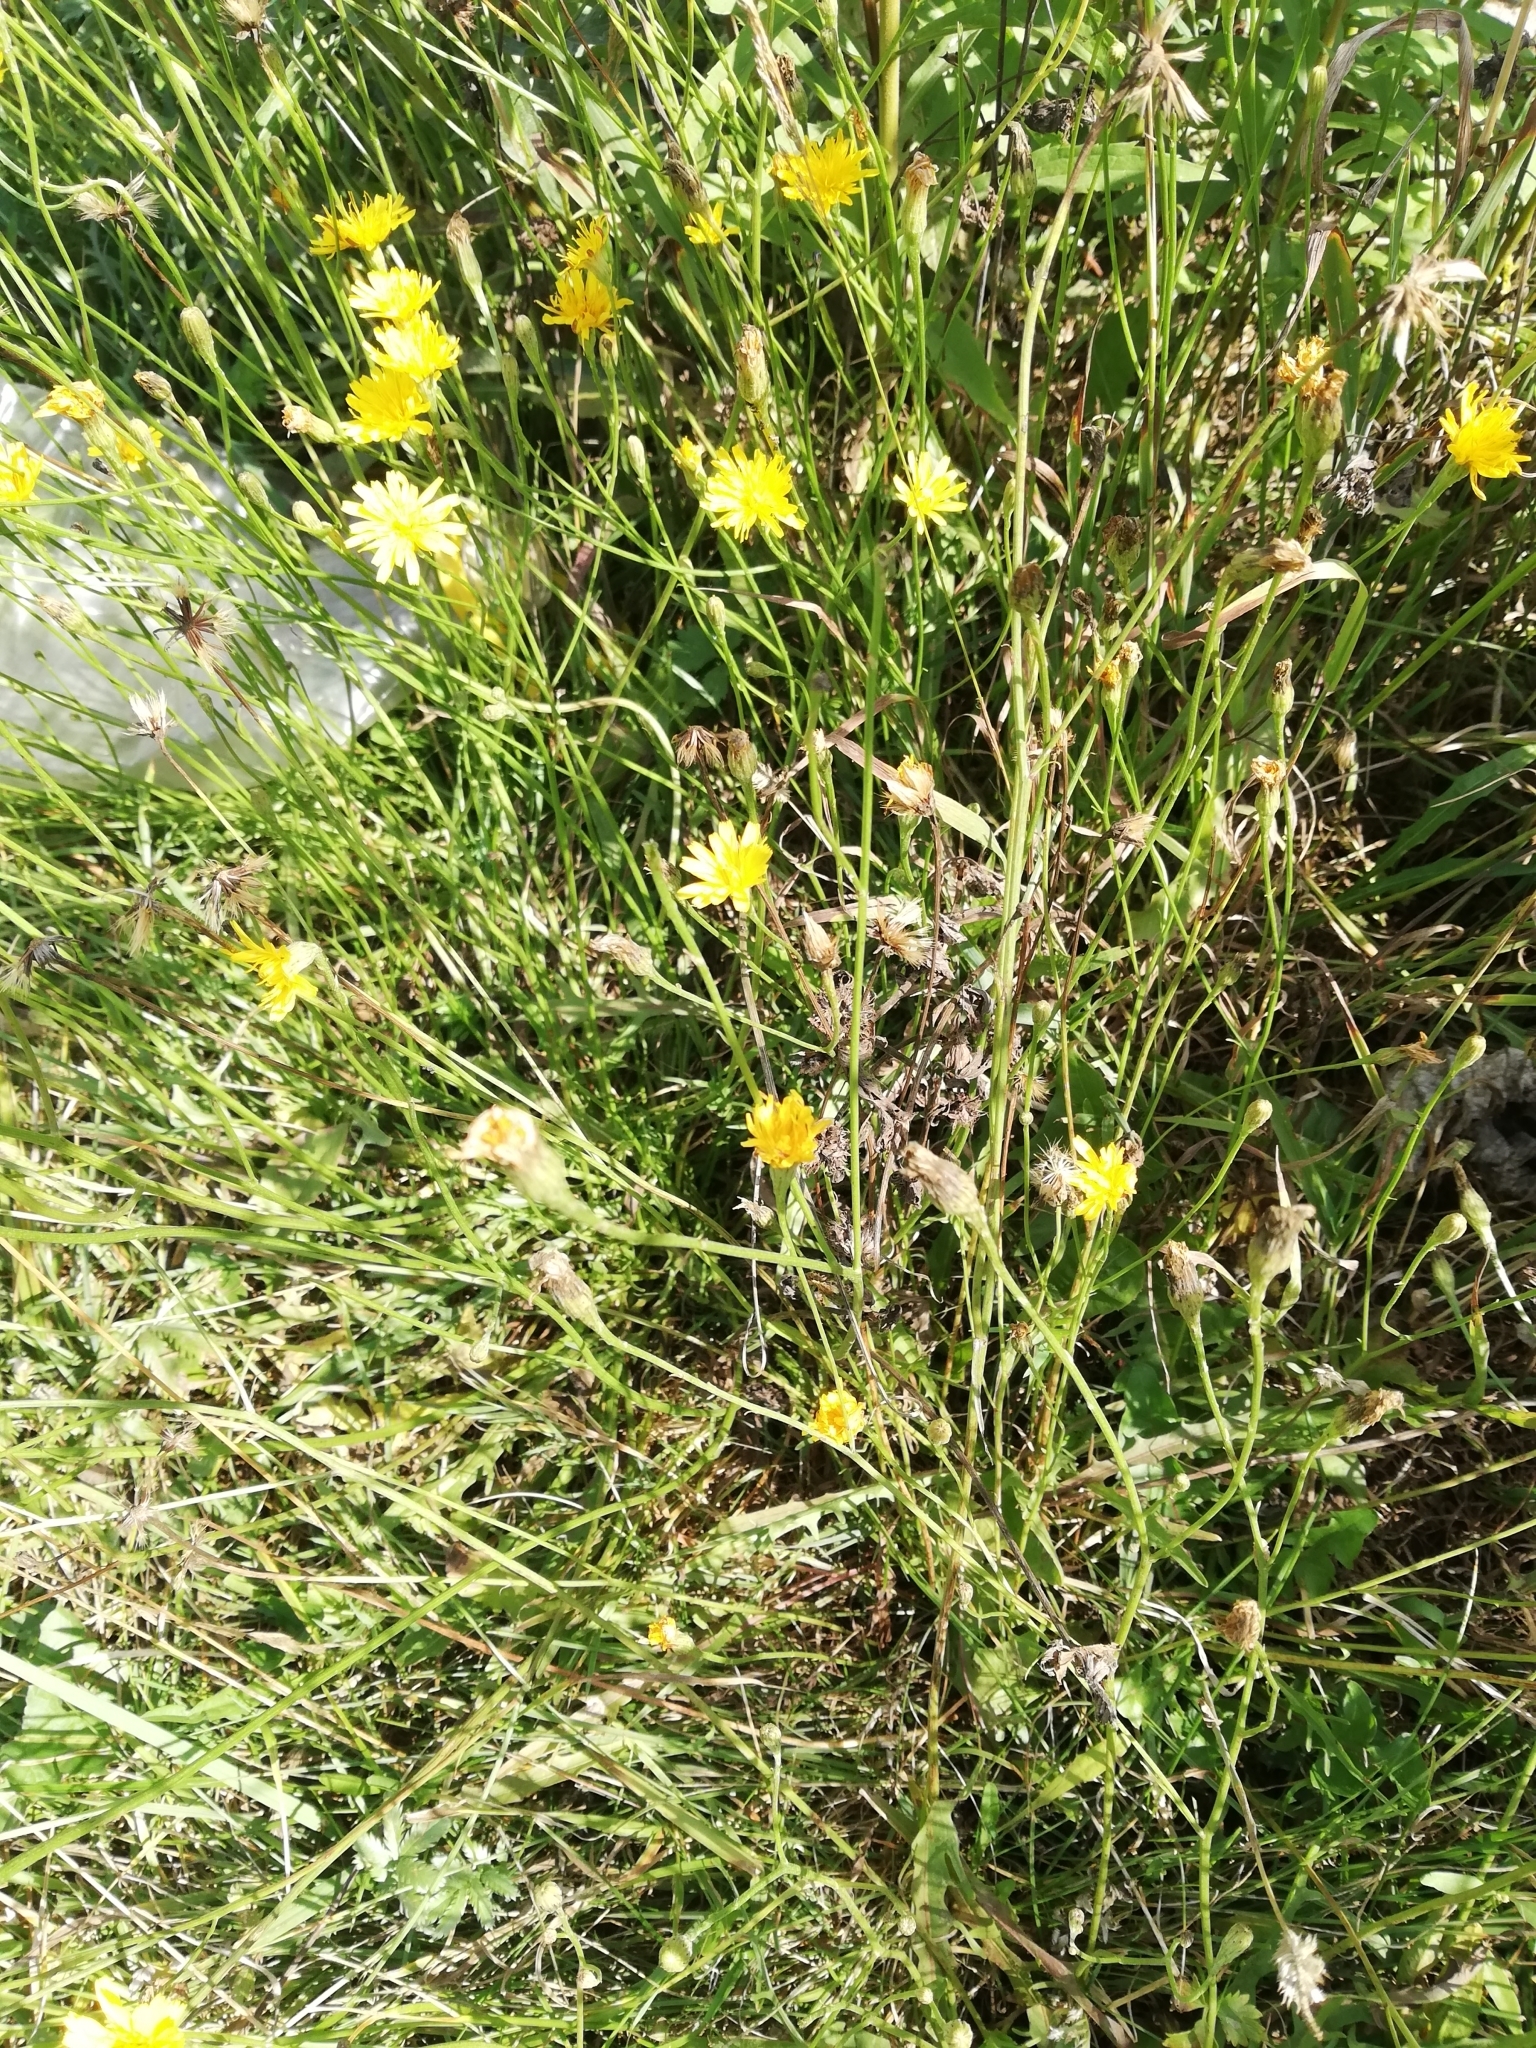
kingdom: Plantae
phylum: Tracheophyta
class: Magnoliopsida
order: Asterales
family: Asteraceae
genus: Scorzoneroides
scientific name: Scorzoneroides autumnalis
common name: Autumn hawkbit
